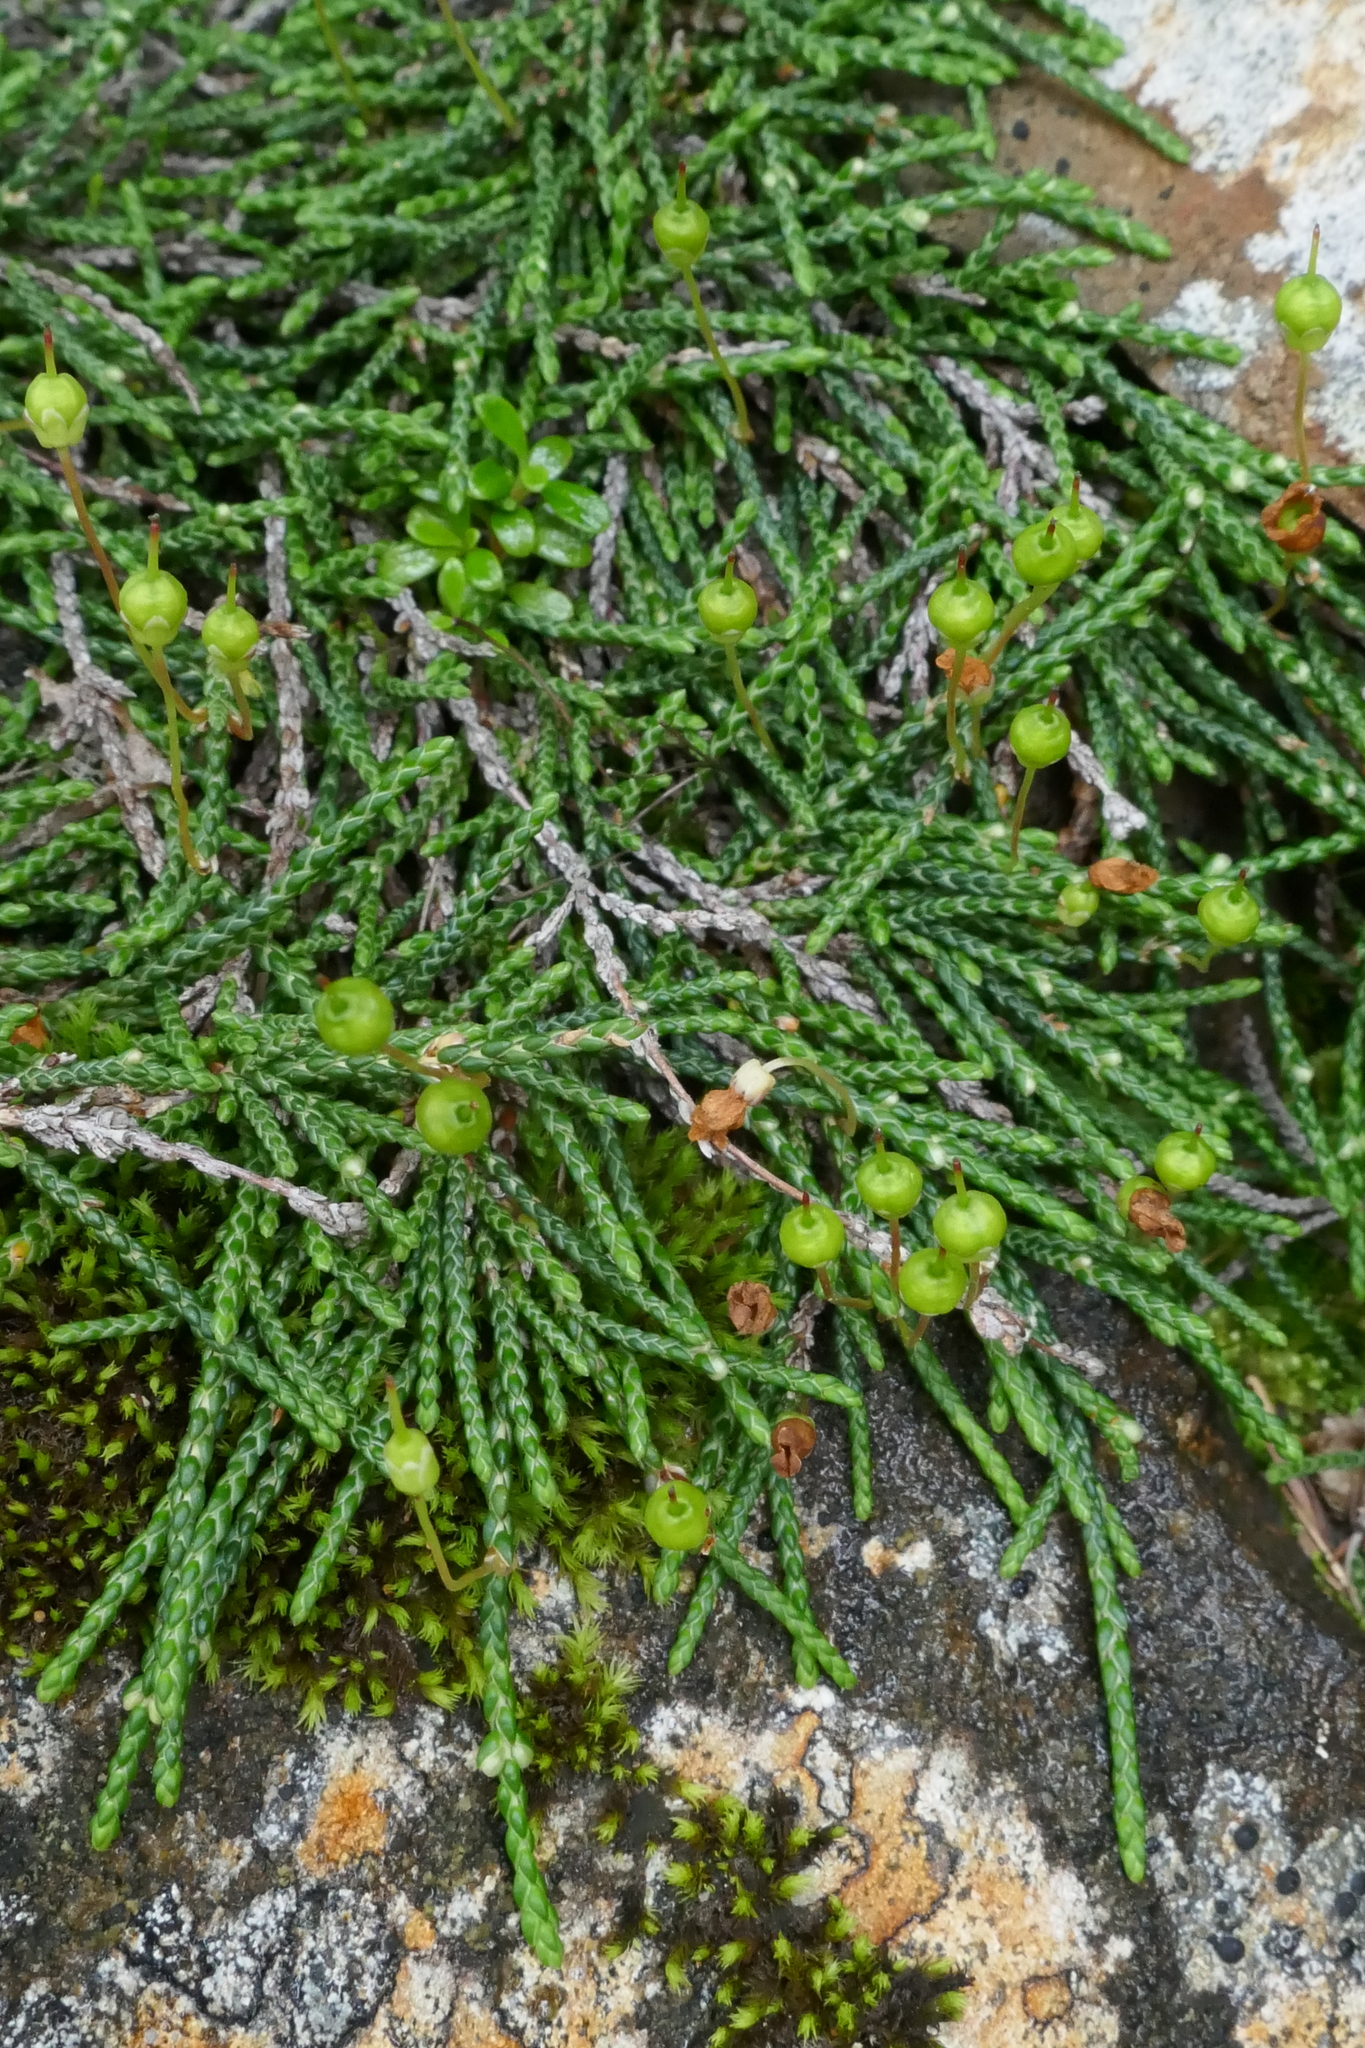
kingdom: Plantae
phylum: Tracheophyta
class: Magnoliopsida
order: Ericales
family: Ericaceae
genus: Cassiope
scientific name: Cassiope lycopodioides
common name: Clubmoss mountain heather
